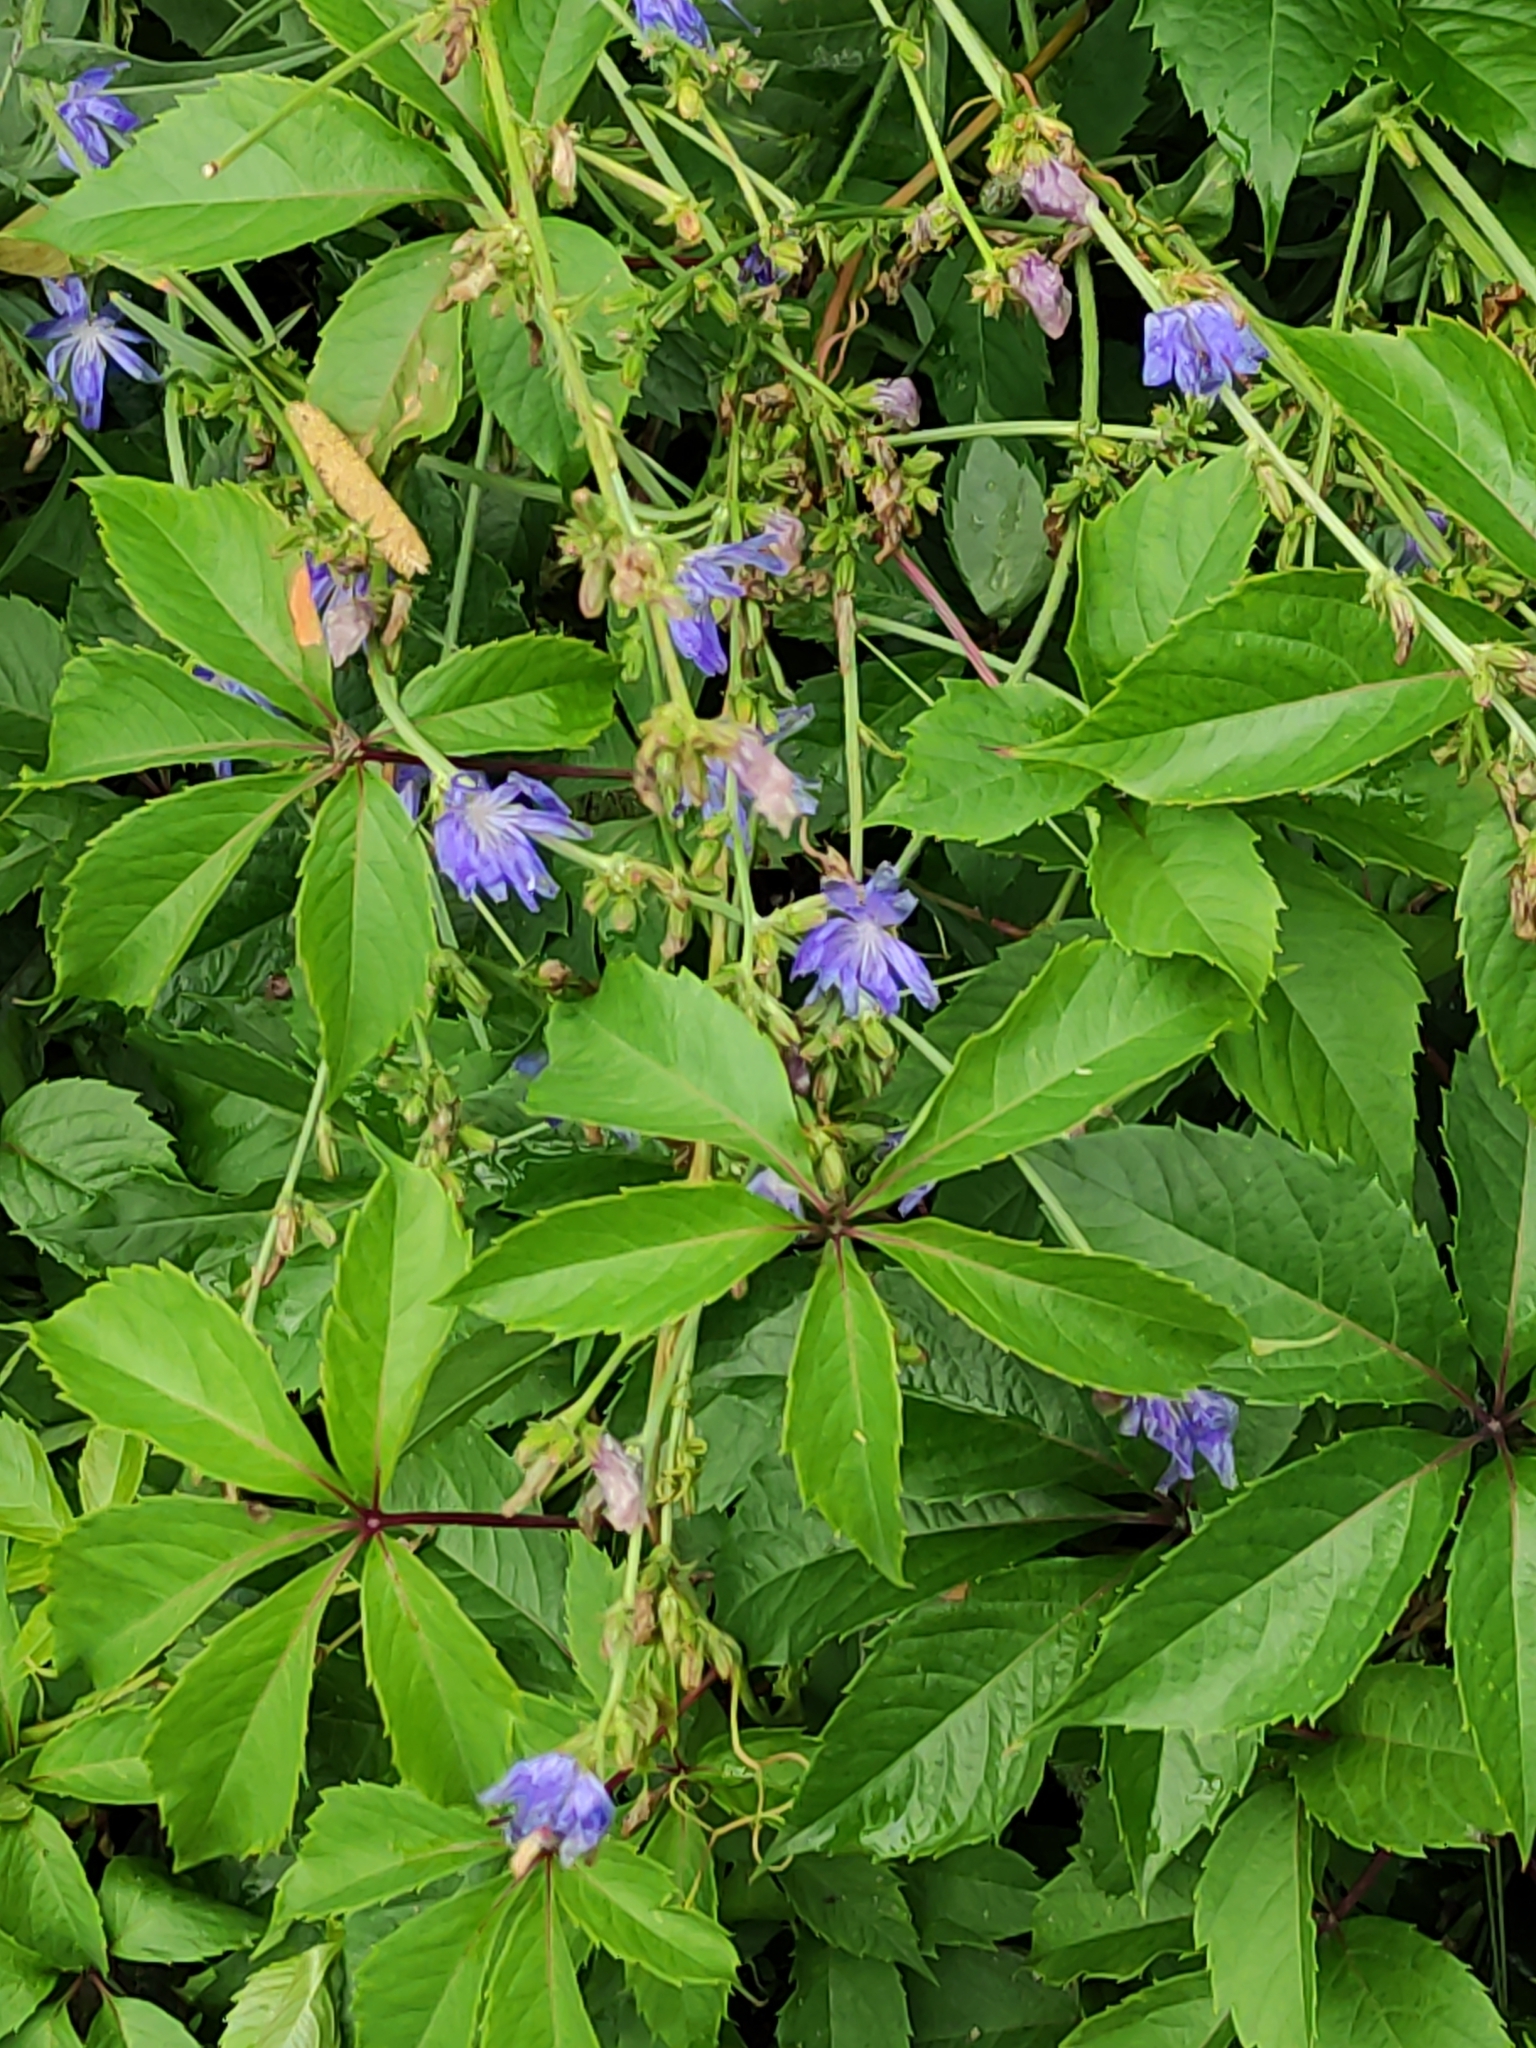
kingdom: Plantae
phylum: Tracheophyta
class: Magnoliopsida
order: Asterales
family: Asteraceae
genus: Cichorium
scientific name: Cichorium intybus
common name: Chicory
